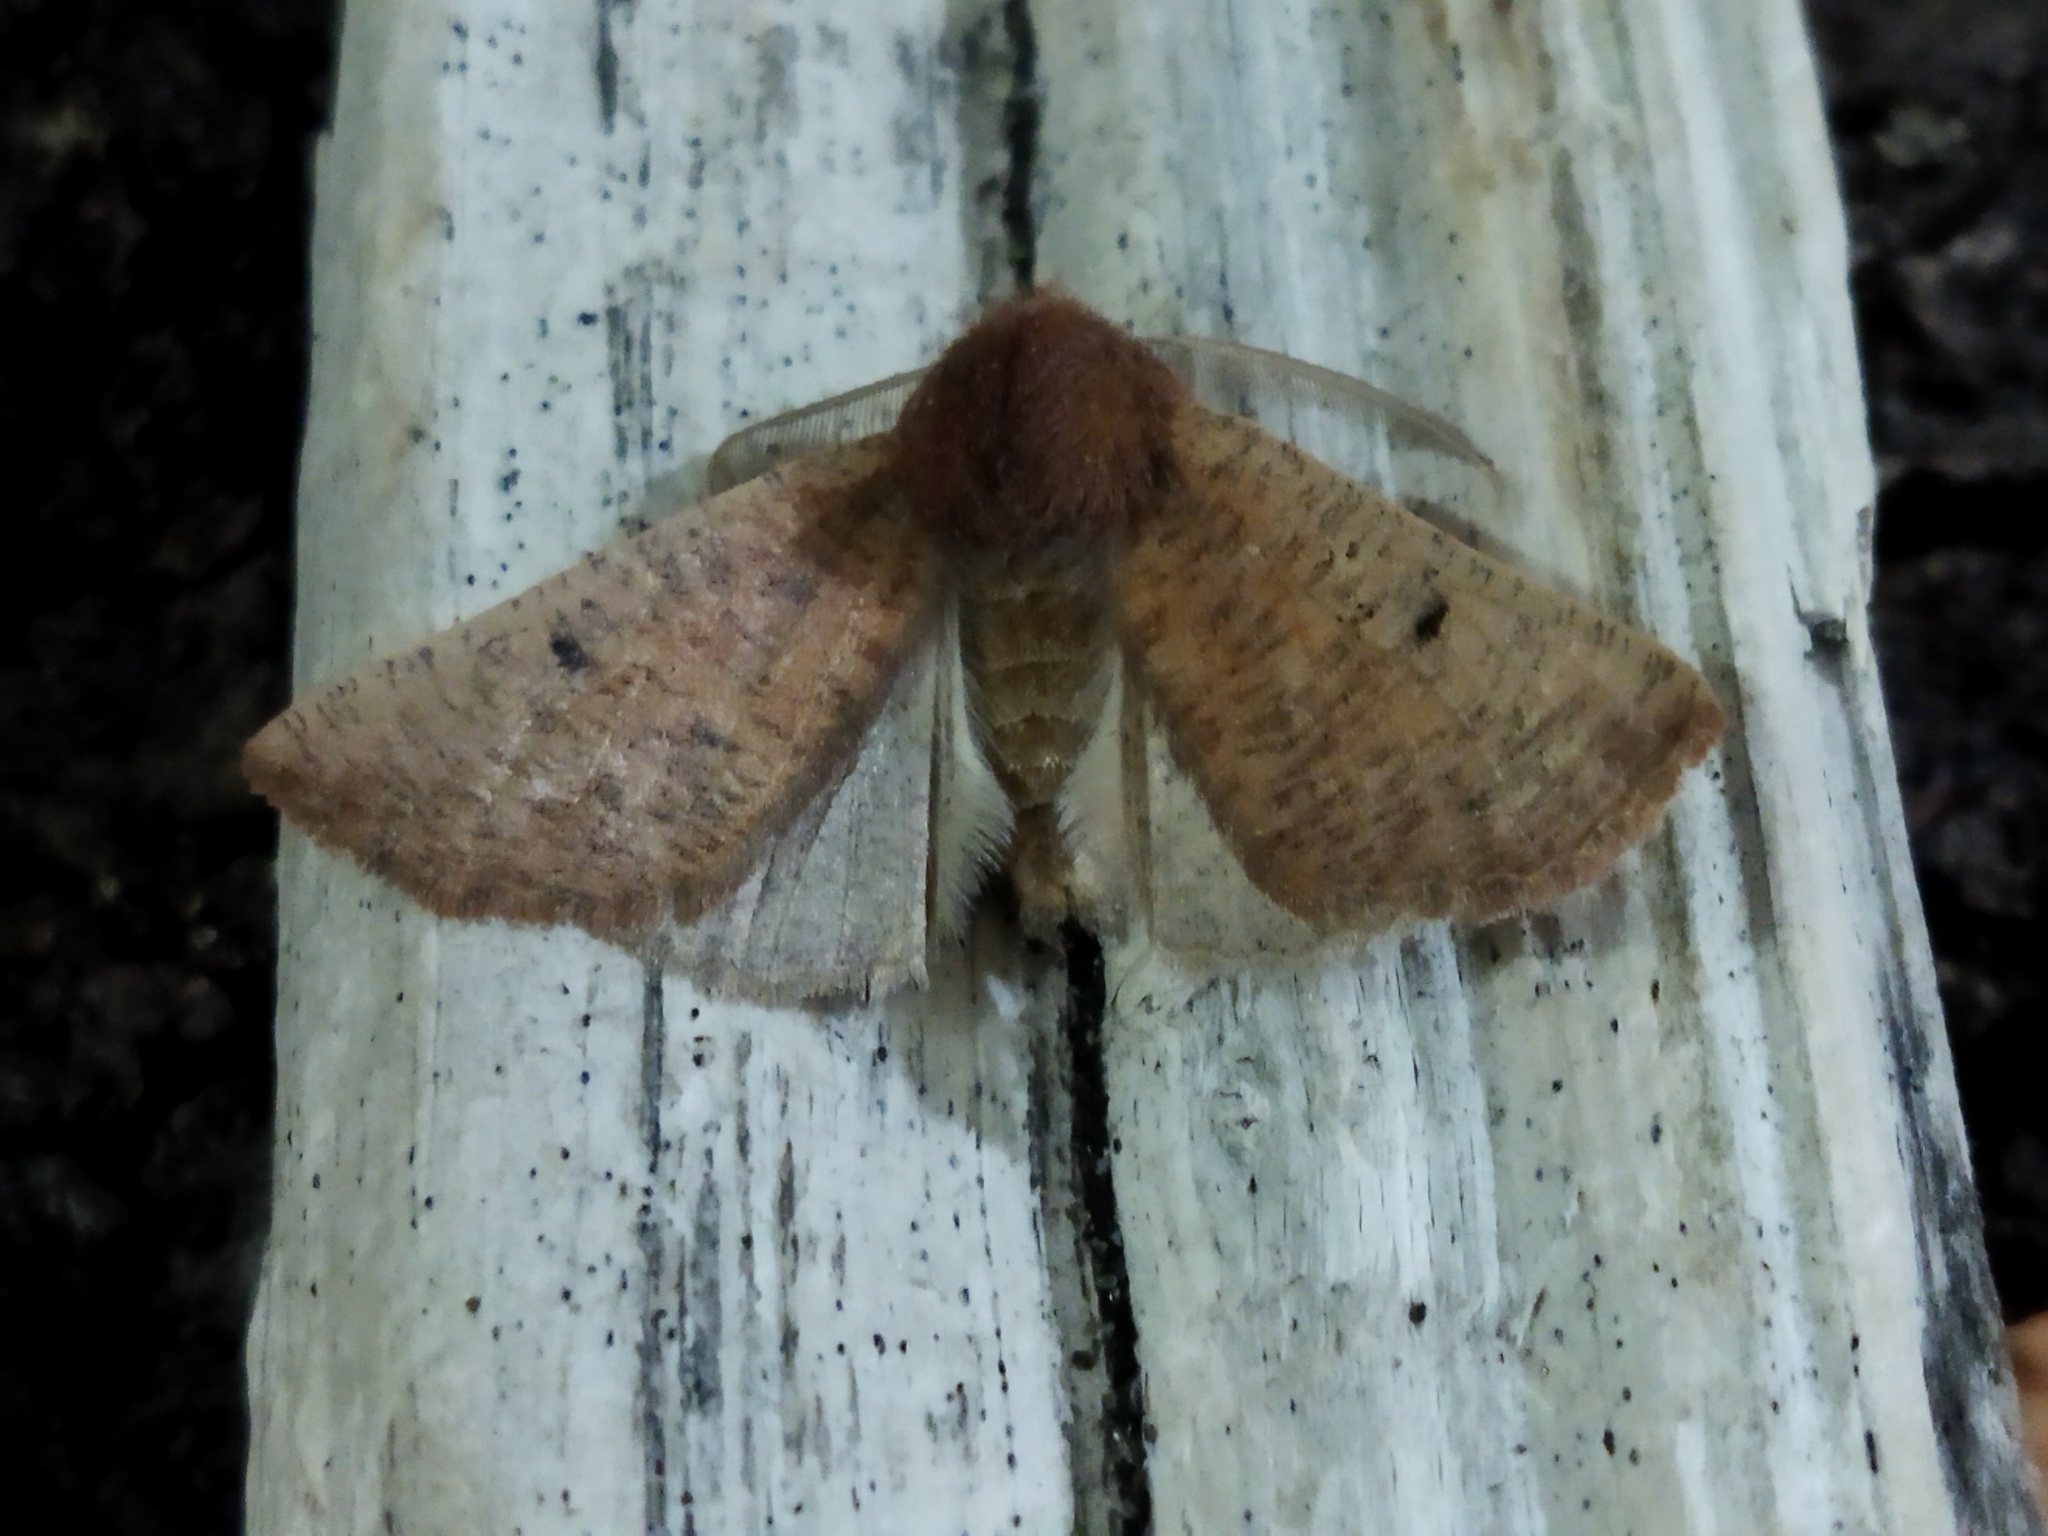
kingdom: Animalia
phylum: Arthropoda
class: Insecta
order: Lepidoptera
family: Geometridae
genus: Dasycorsa
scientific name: Dasycorsa modesta
